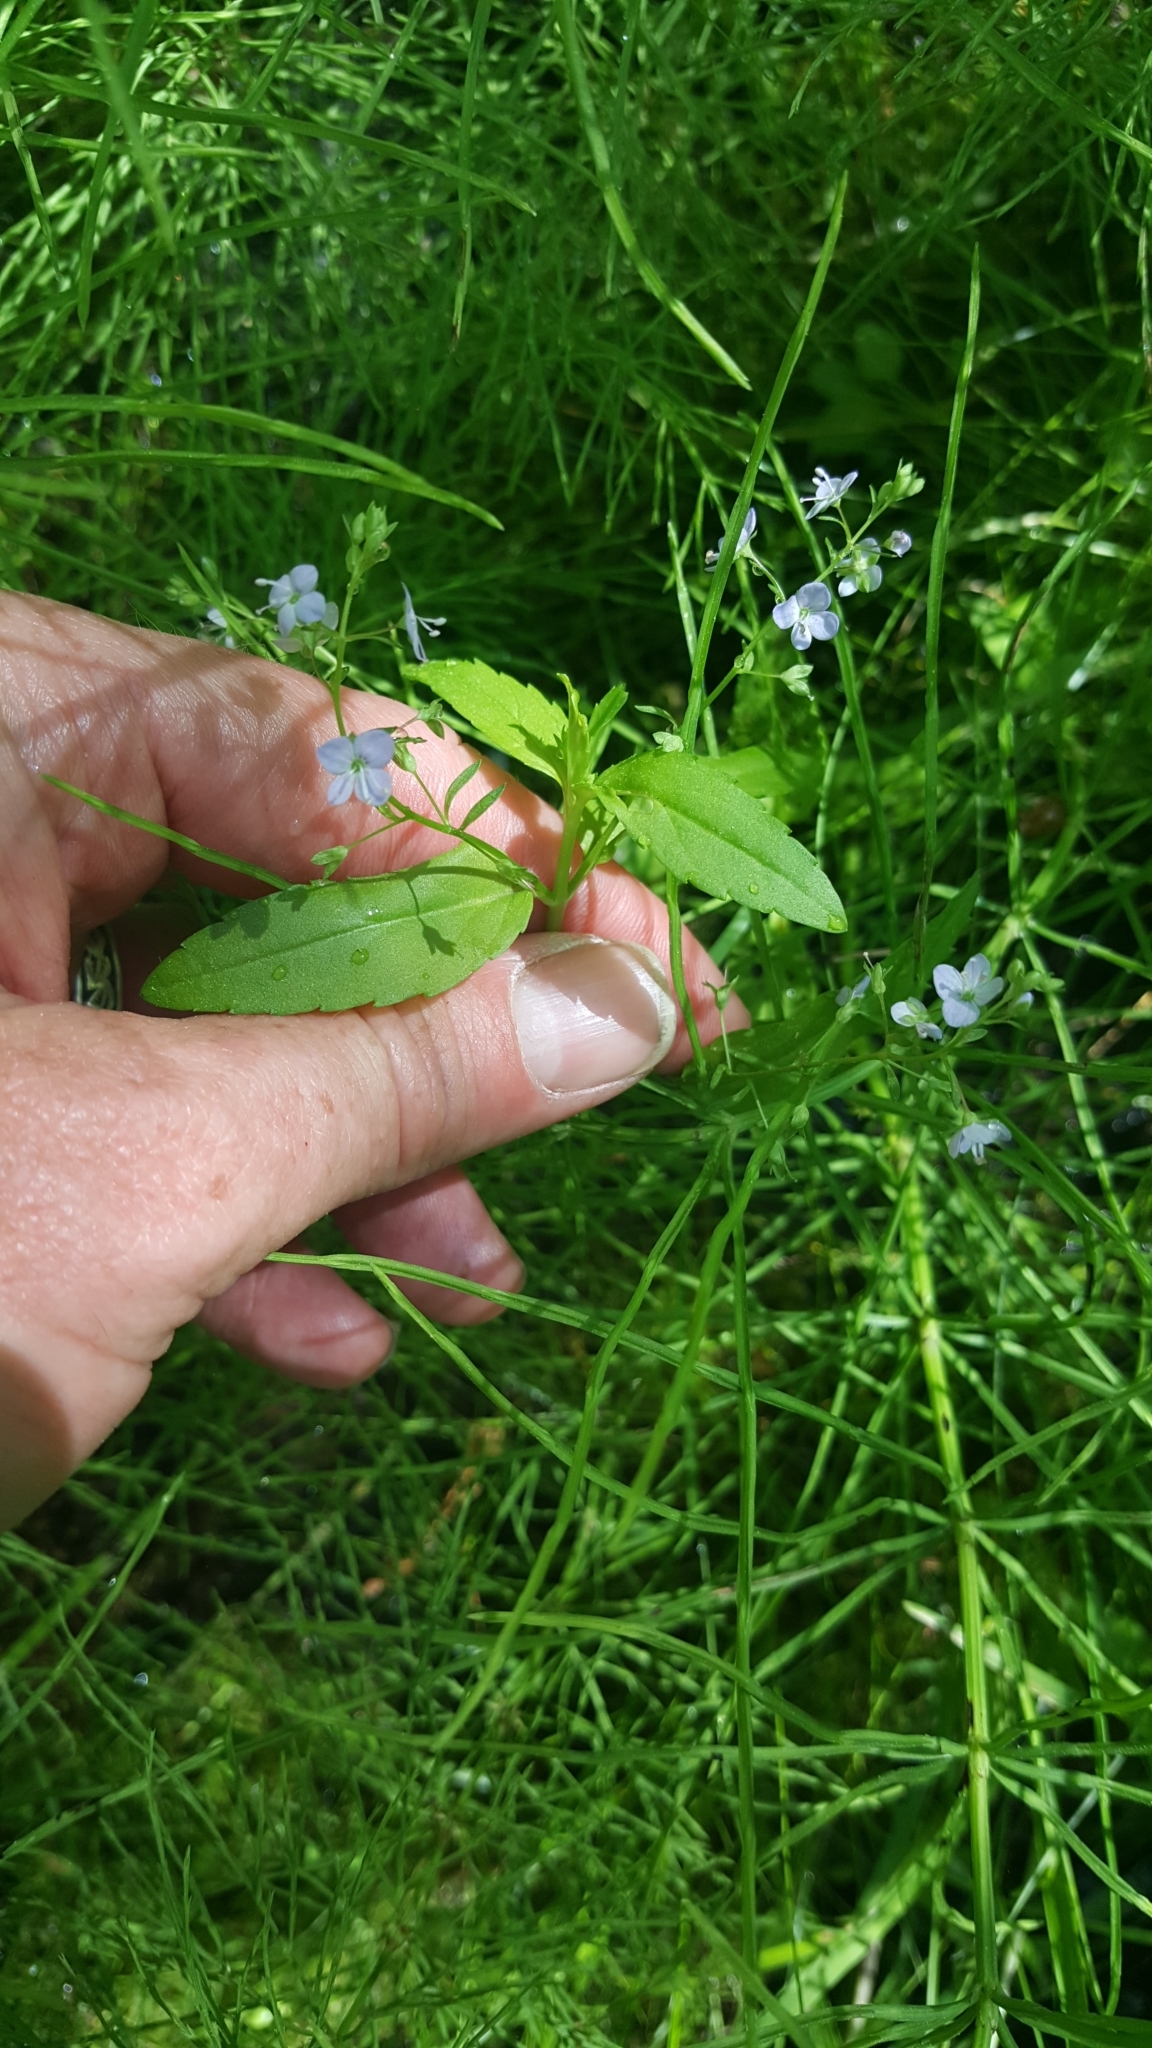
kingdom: Plantae
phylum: Tracheophyta
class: Magnoliopsida
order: Lamiales
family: Plantaginaceae
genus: Veronica
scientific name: Veronica americana
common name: American brooklime
